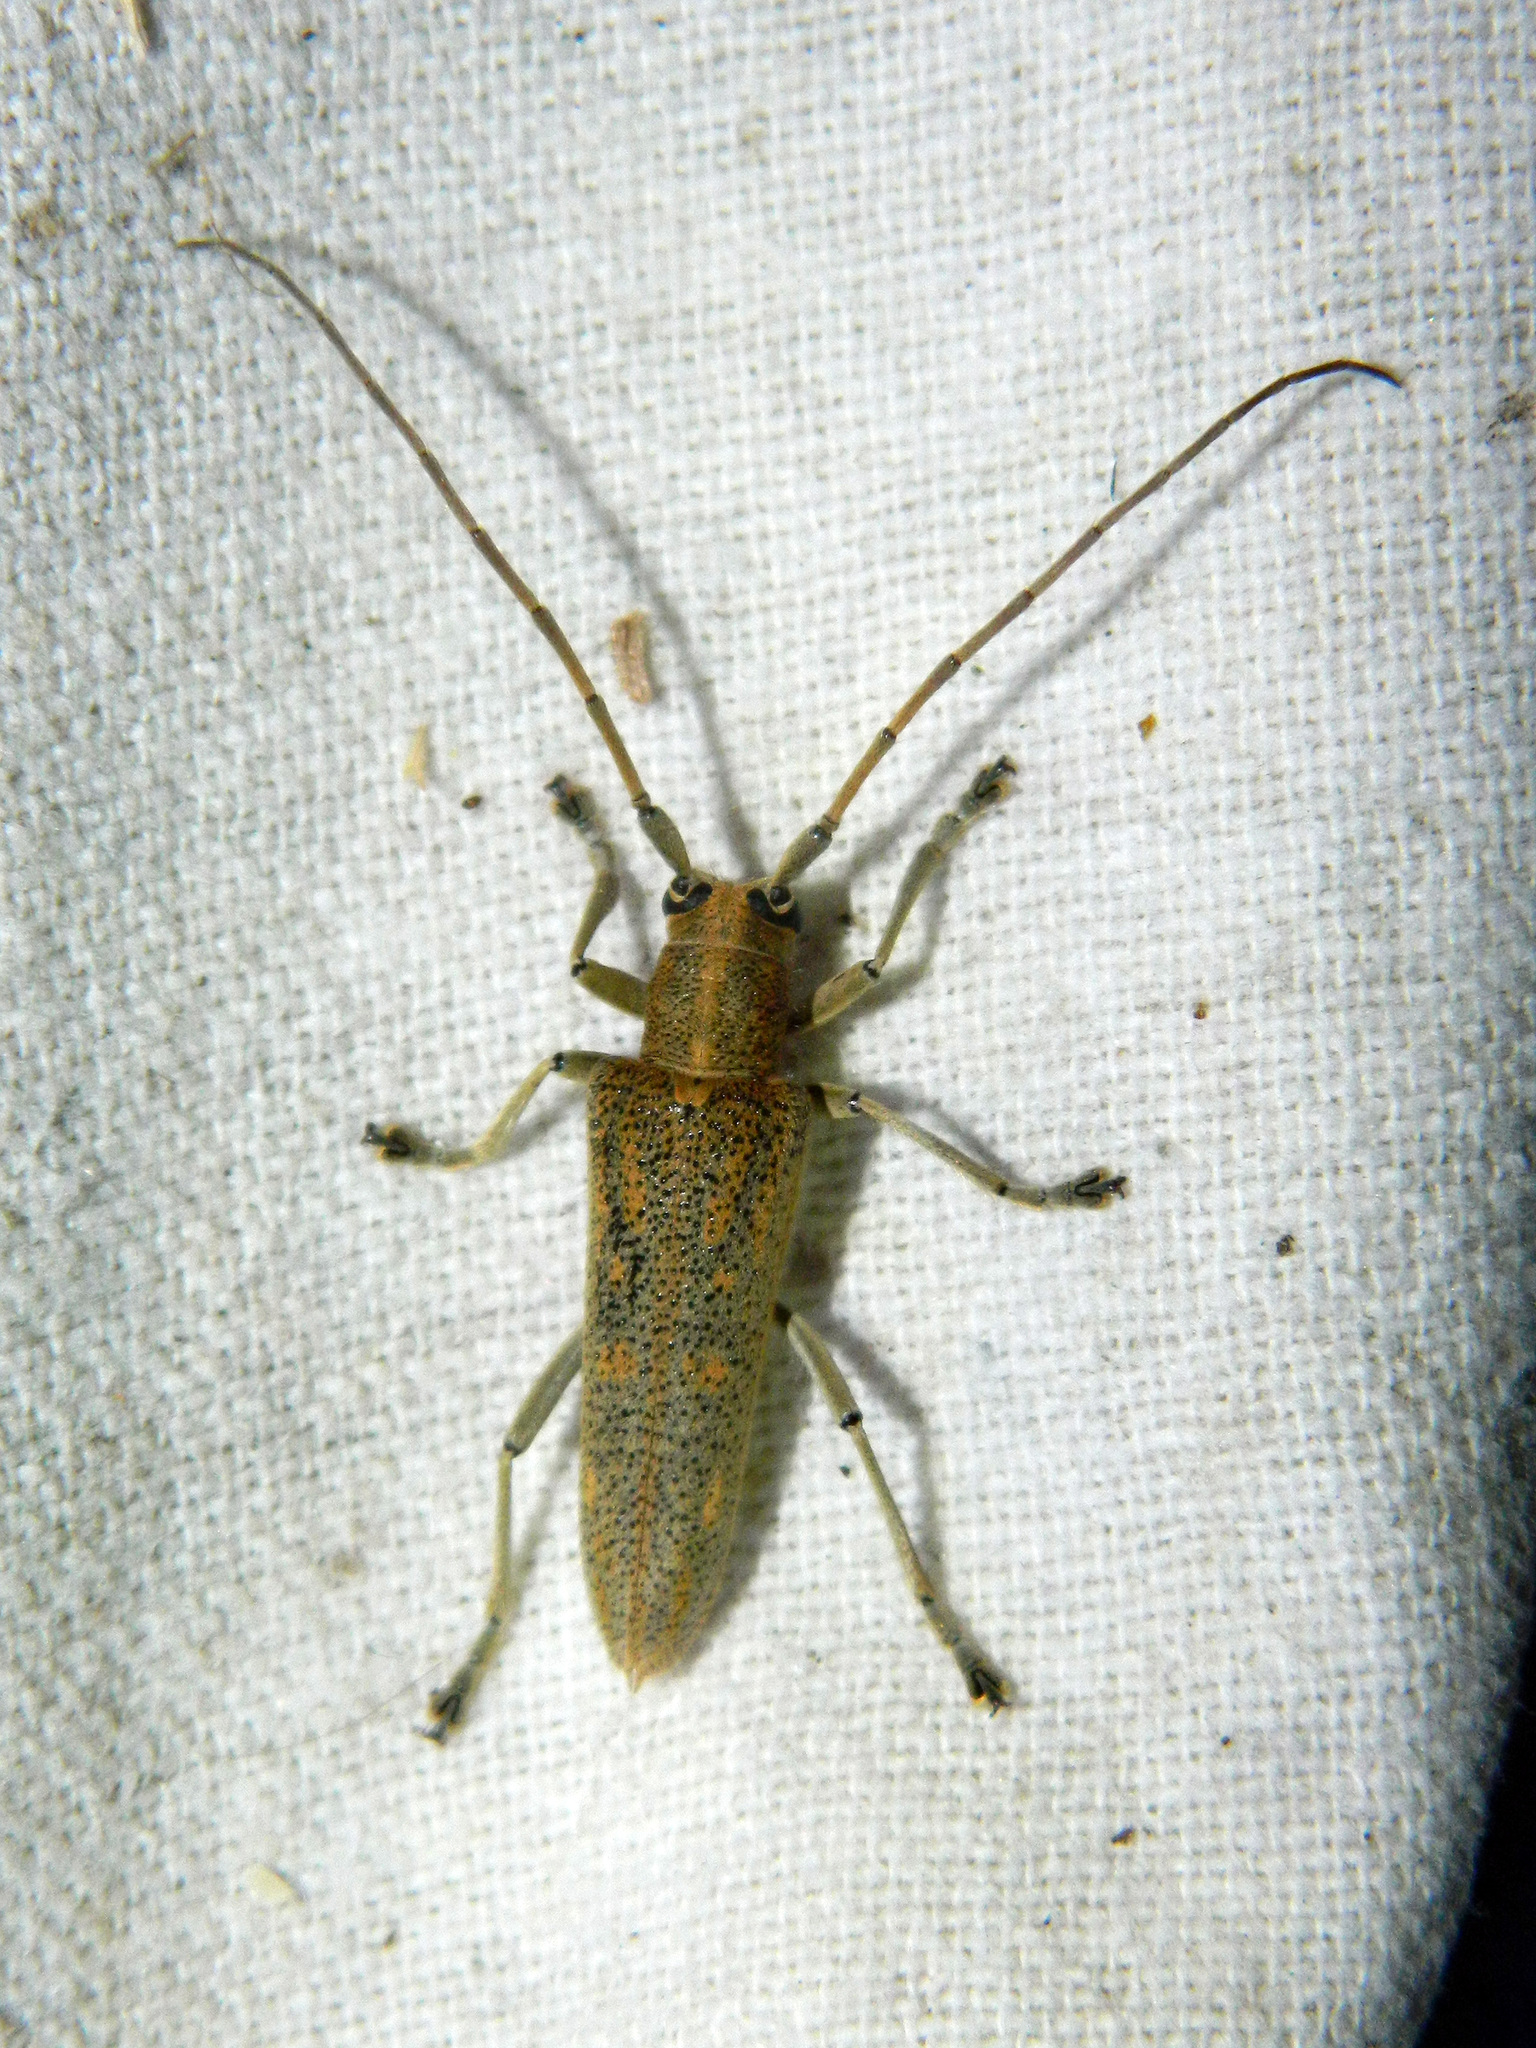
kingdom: Animalia
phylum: Arthropoda
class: Insecta
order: Coleoptera
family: Cerambycidae
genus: Saperda
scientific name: Saperda calcarata
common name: Poplar borer
